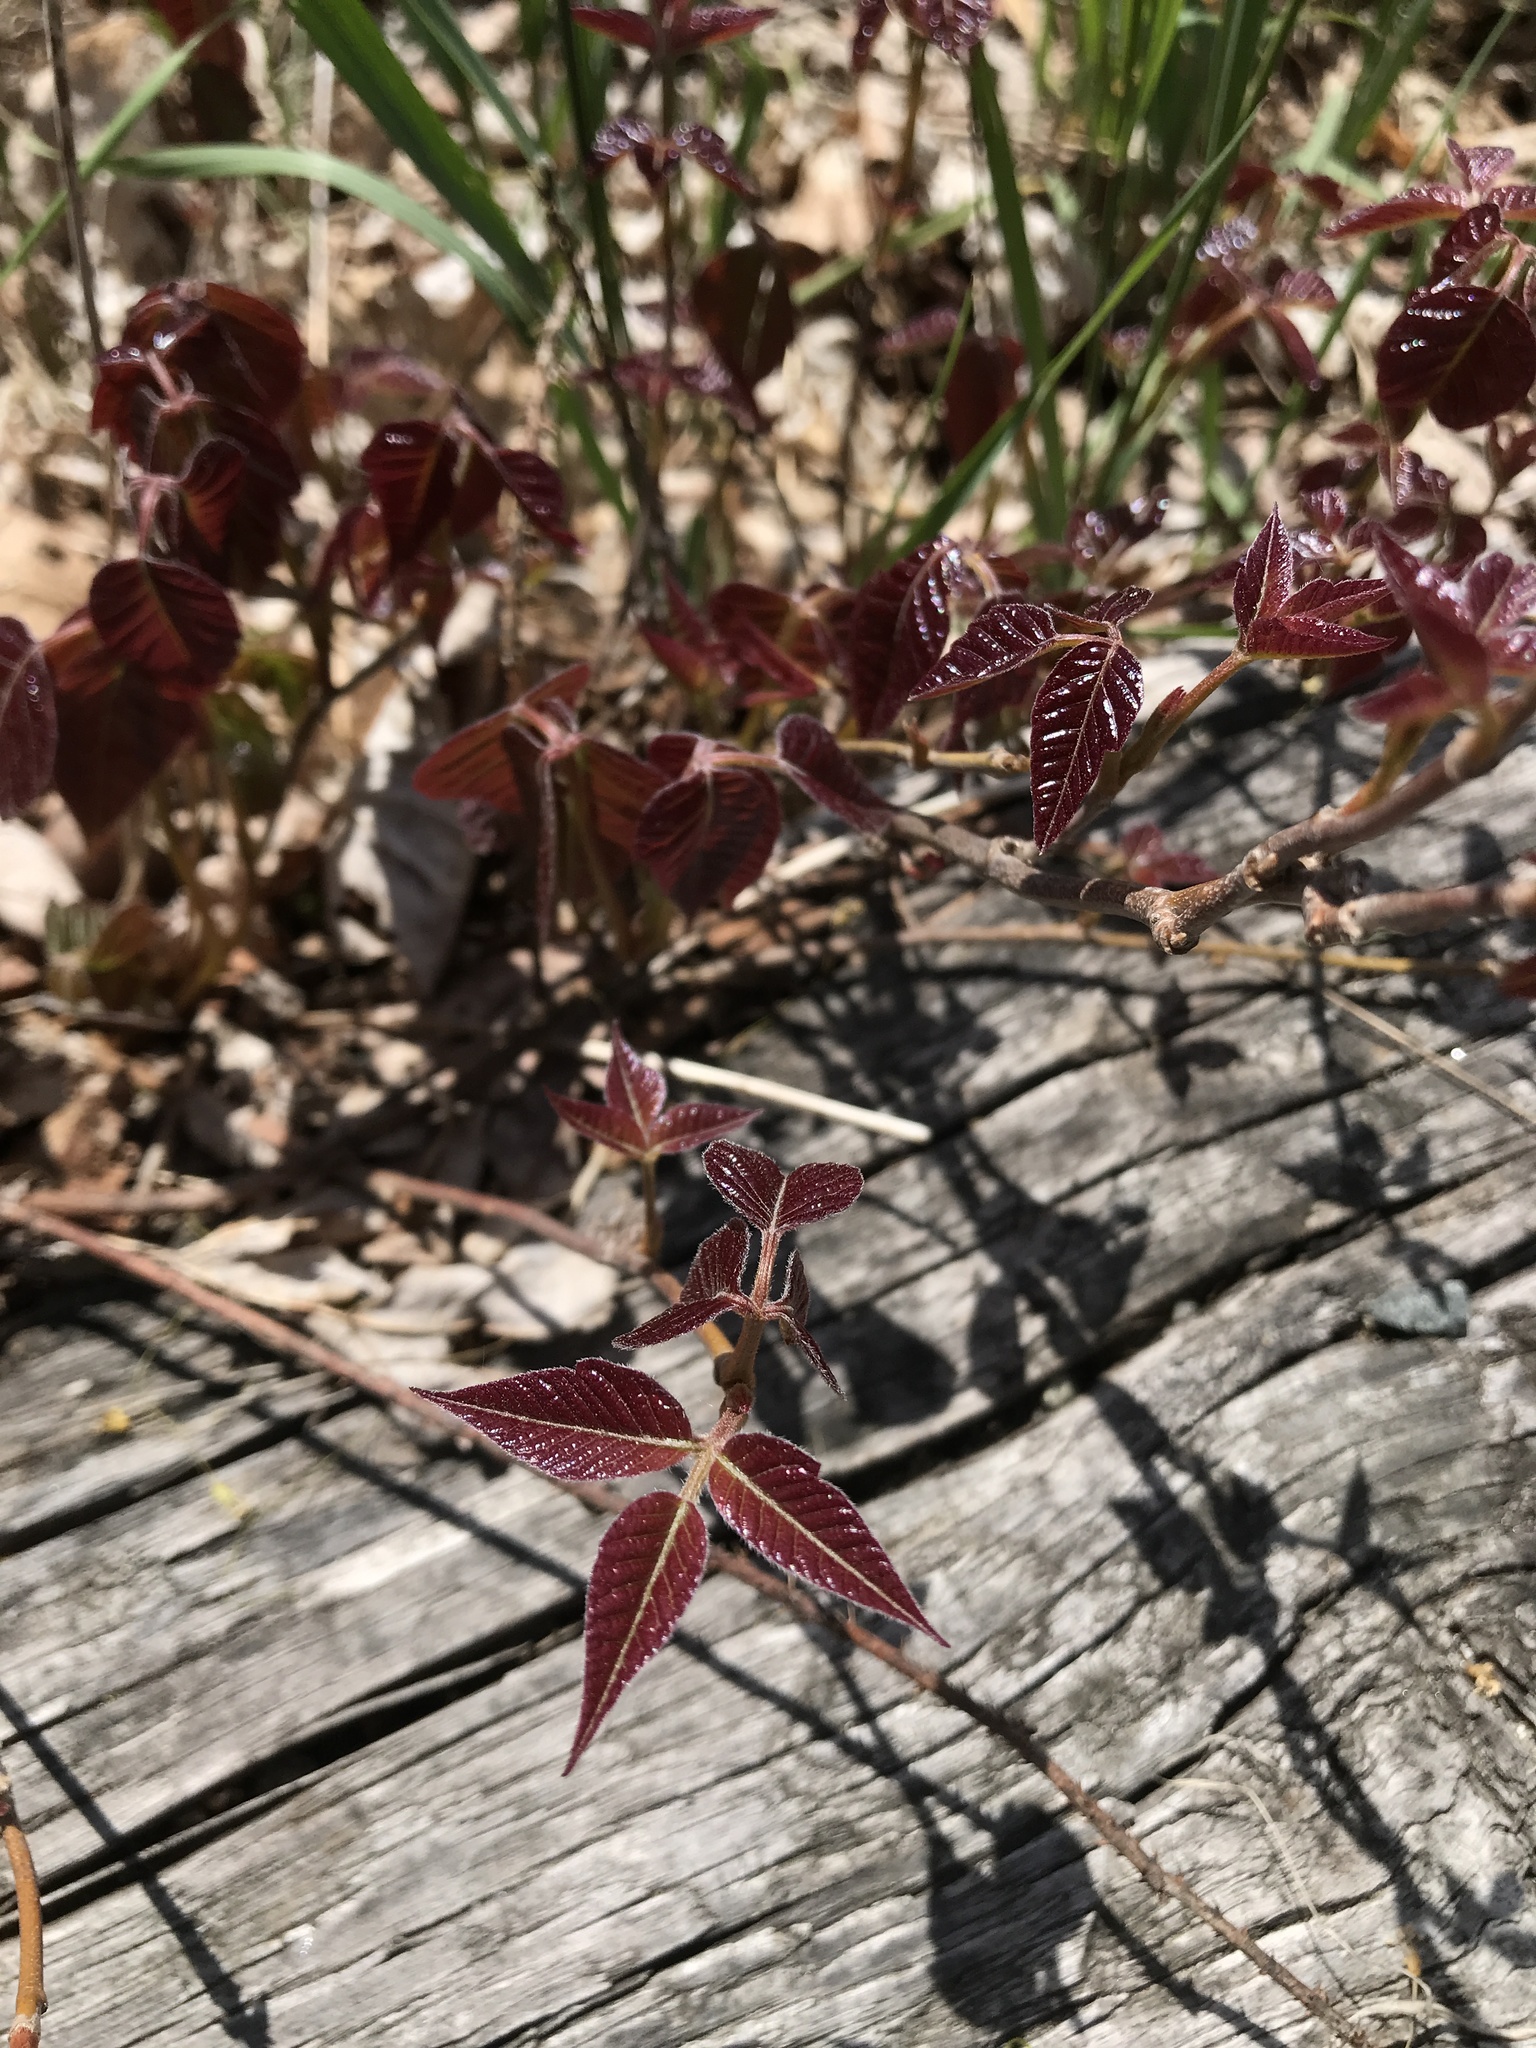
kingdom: Plantae
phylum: Tracheophyta
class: Magnoliopsida
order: Sapindales
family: Anacardiaceae
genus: Toxicodendron
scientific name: Toxicodendron radicans
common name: Poison ivy
